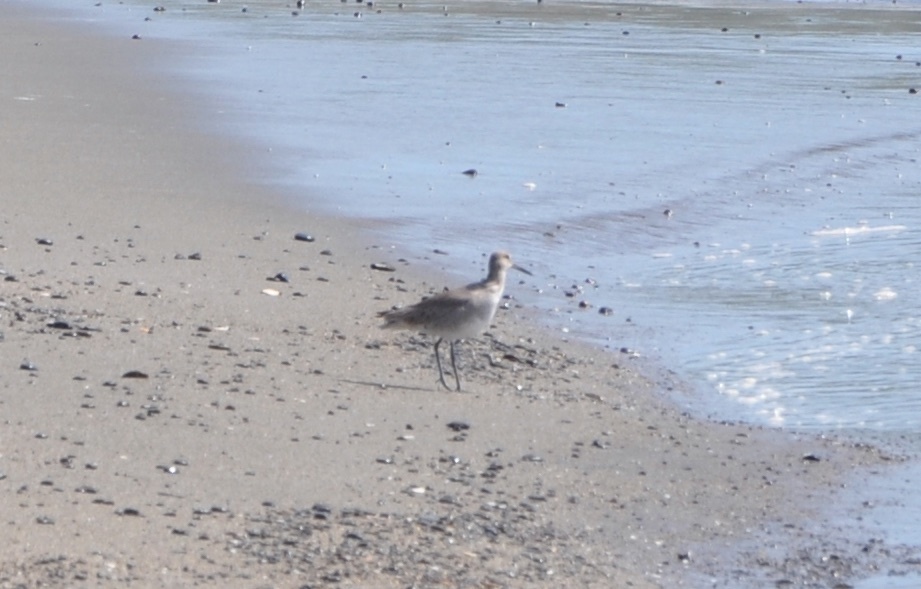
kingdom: Animalia
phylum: Chordata
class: Aves
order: Charadriiformes
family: Scolopacidae
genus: Tringa
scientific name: Tringa semipalmata
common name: Willet
